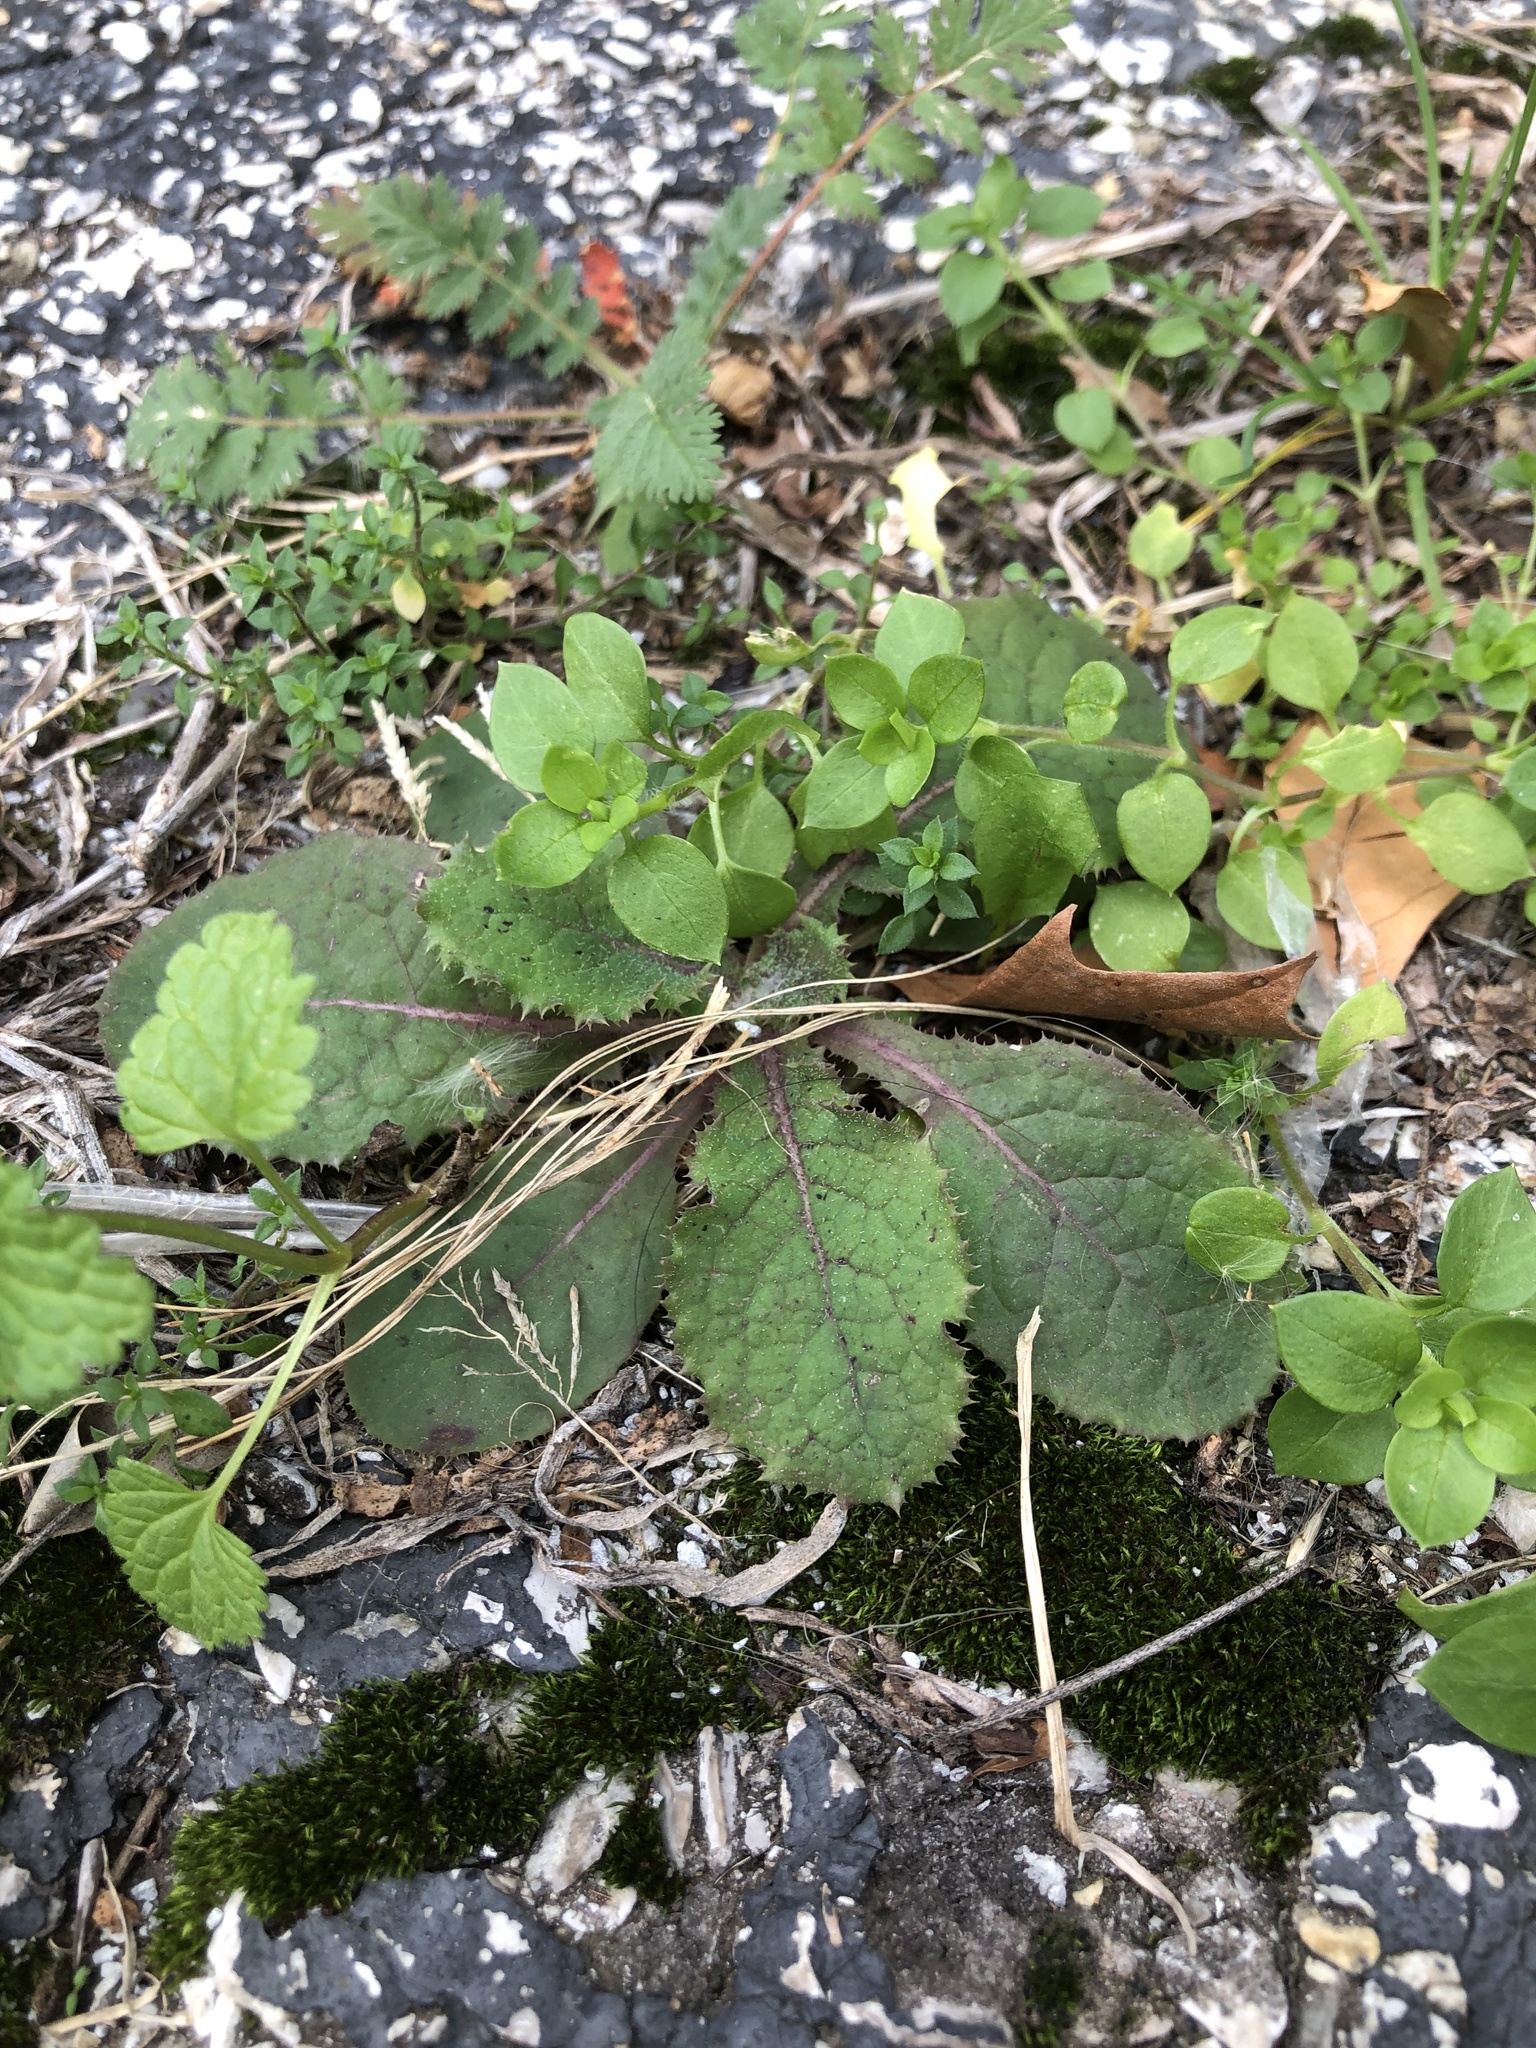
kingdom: Plantae
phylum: Tracheophyta
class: Magnoliopsida
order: Asterales
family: Asteraceae
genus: Sonchus
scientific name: Sonchus asper
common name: Prickly sow-thistle
